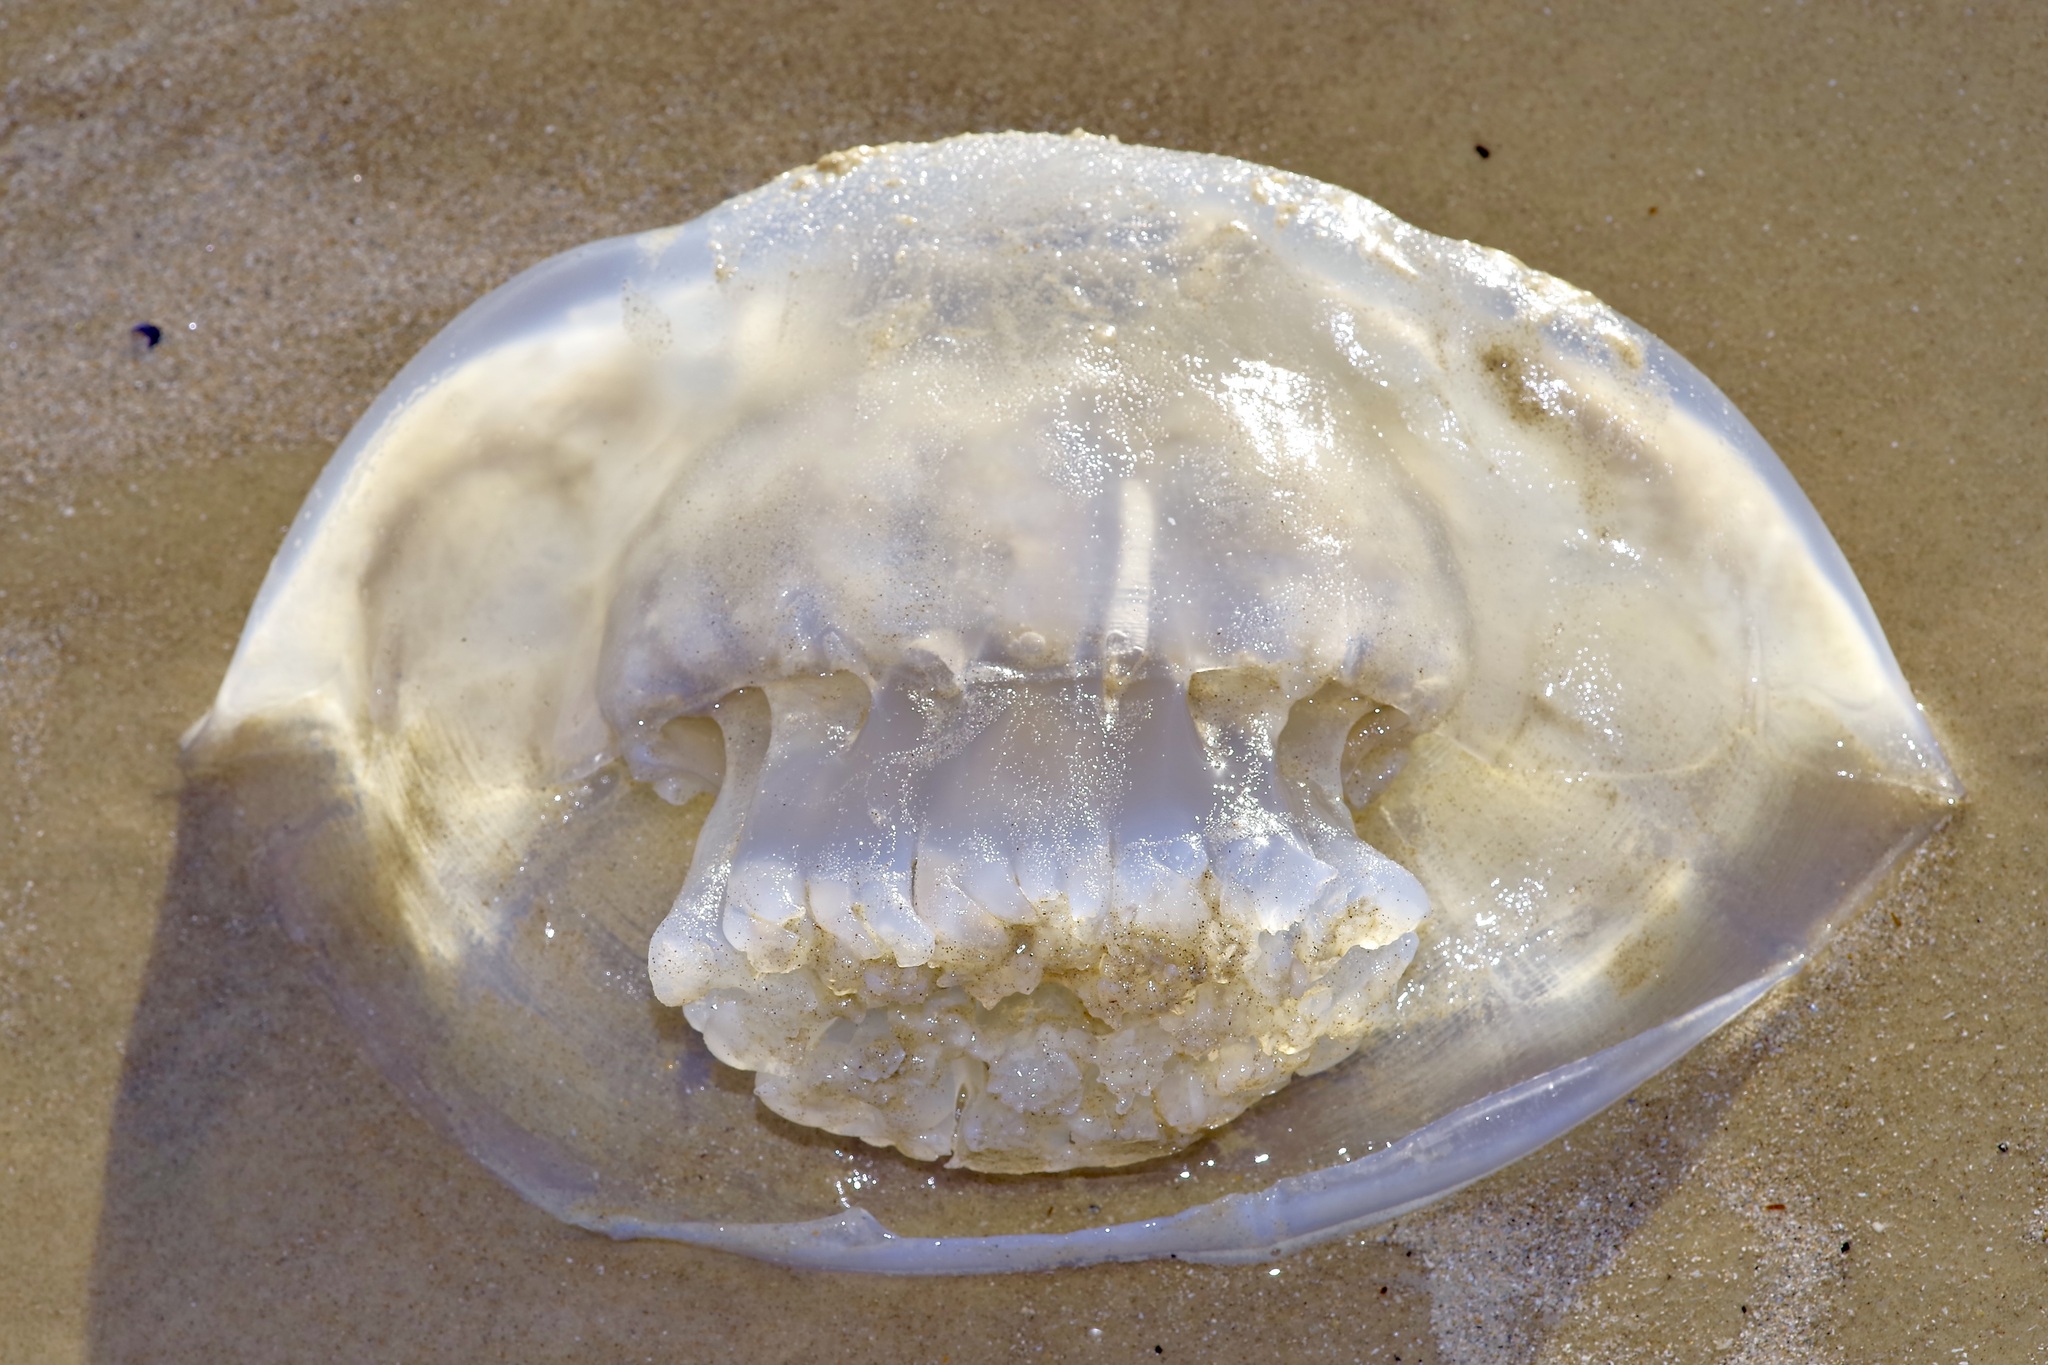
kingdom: Animalia
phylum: Cnidaria
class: Scyphozoa
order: Rhizostomeae
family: Stomolophidae
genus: Stomolophus
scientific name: Stomolophus meleagris
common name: Cabbagehead
